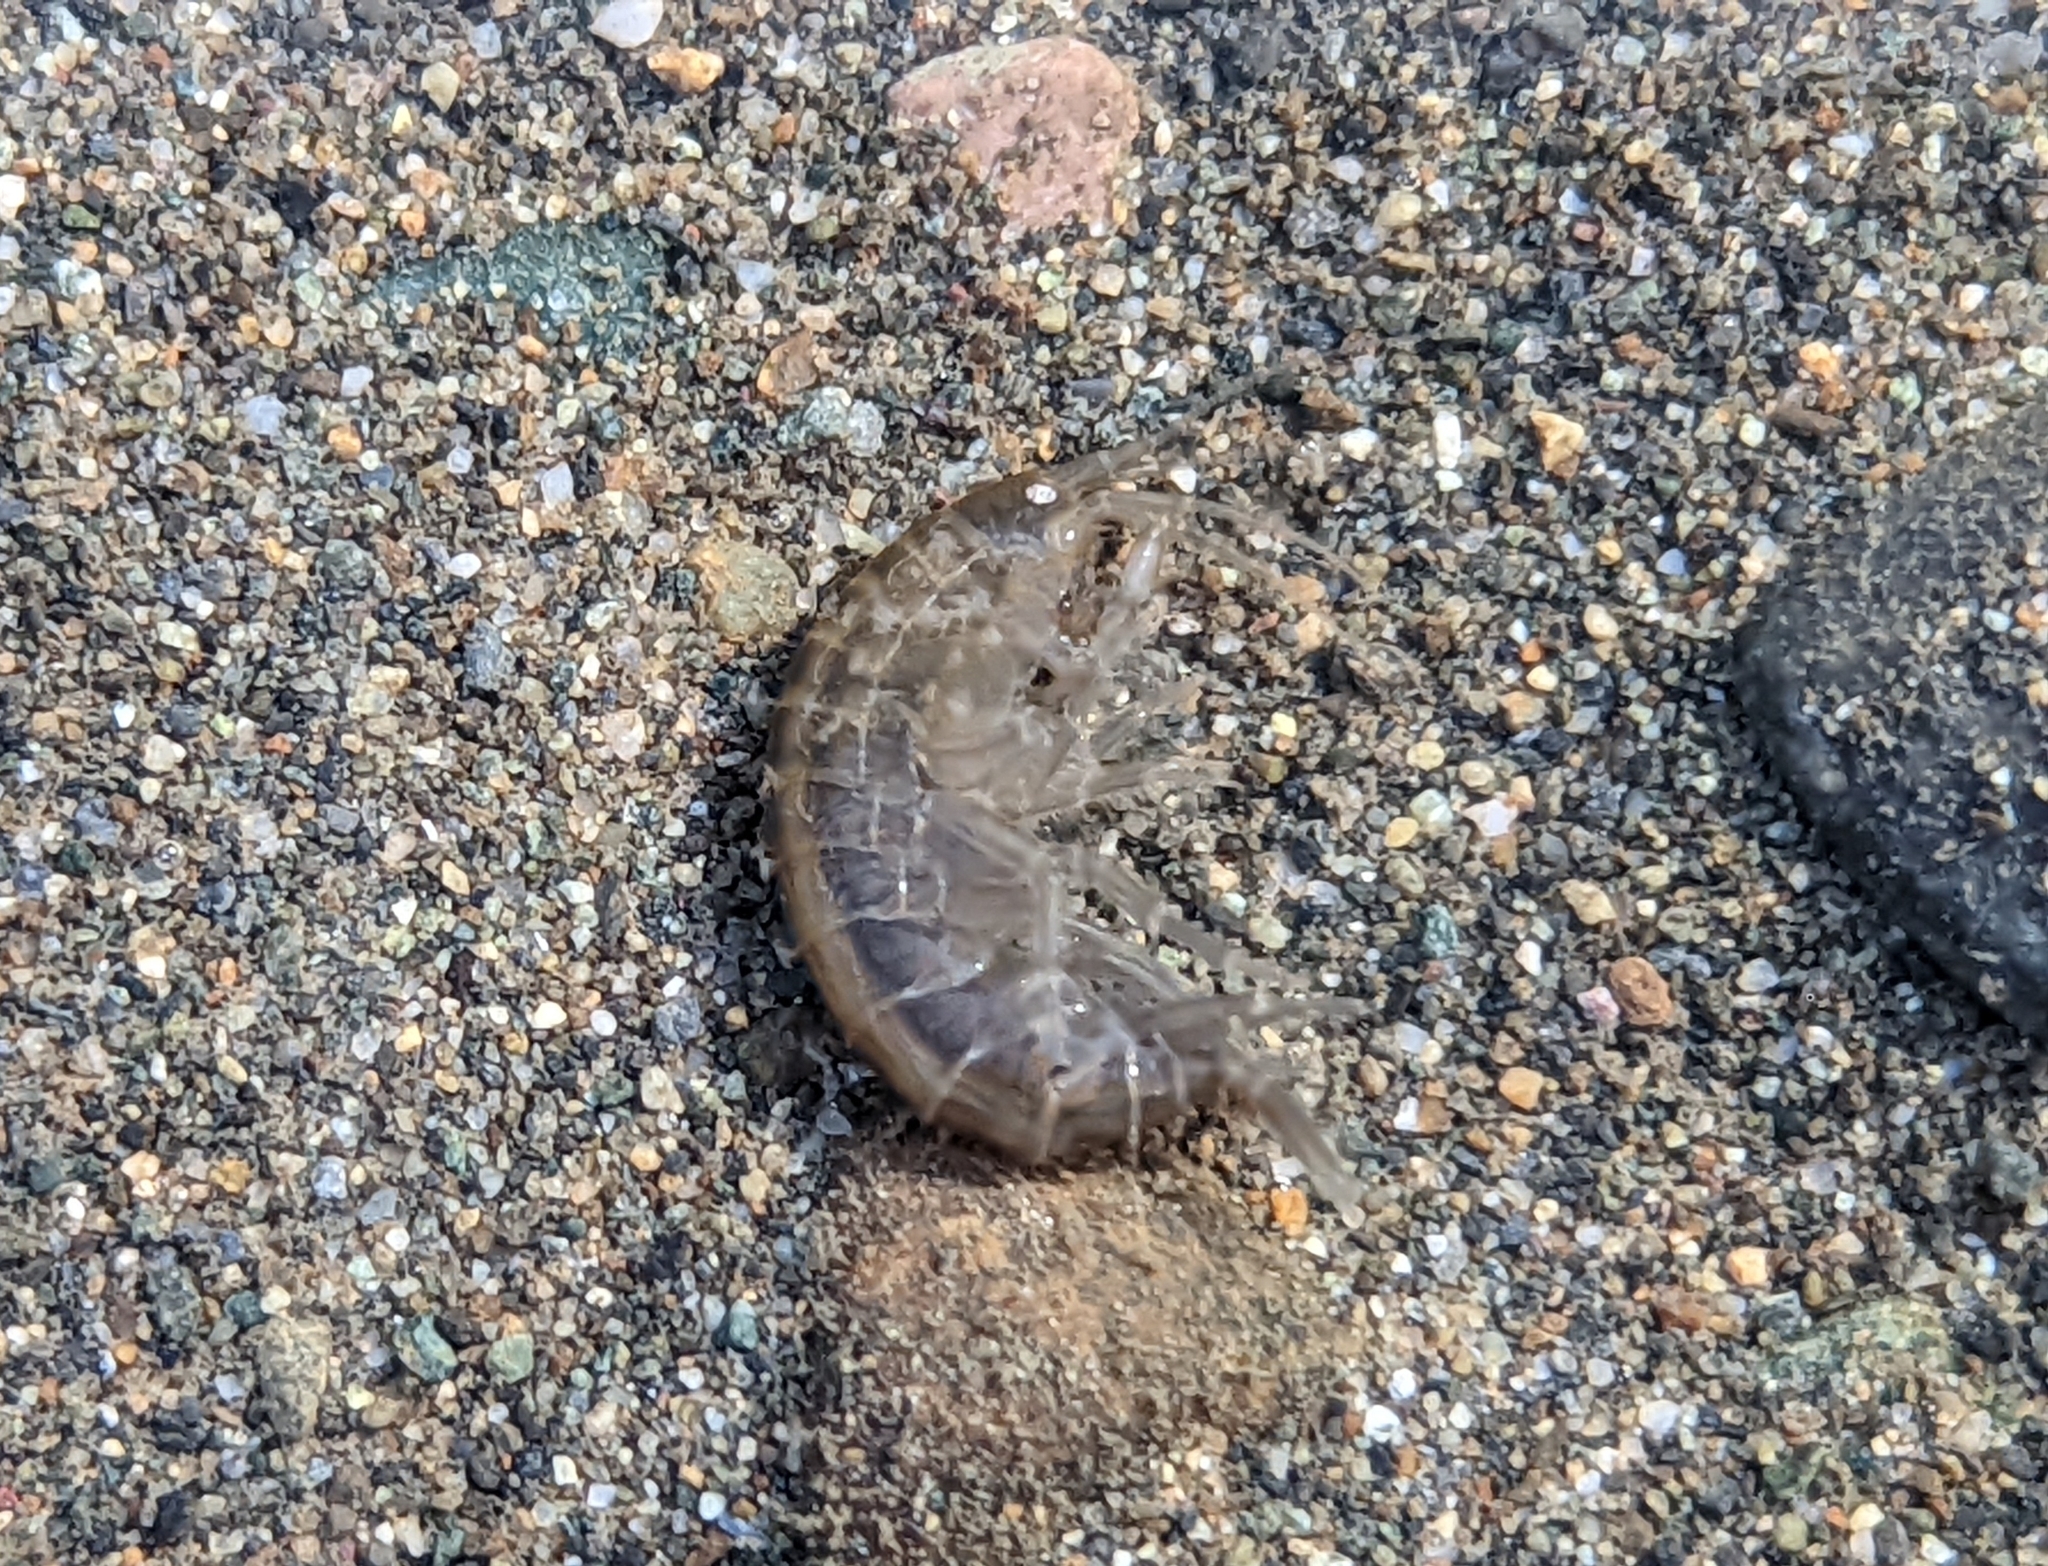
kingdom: Animalia
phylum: Arthropoda
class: Malacostraca
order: Amphipoda
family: Gammaridae
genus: Gammarus
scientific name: Gammarus lacustris
